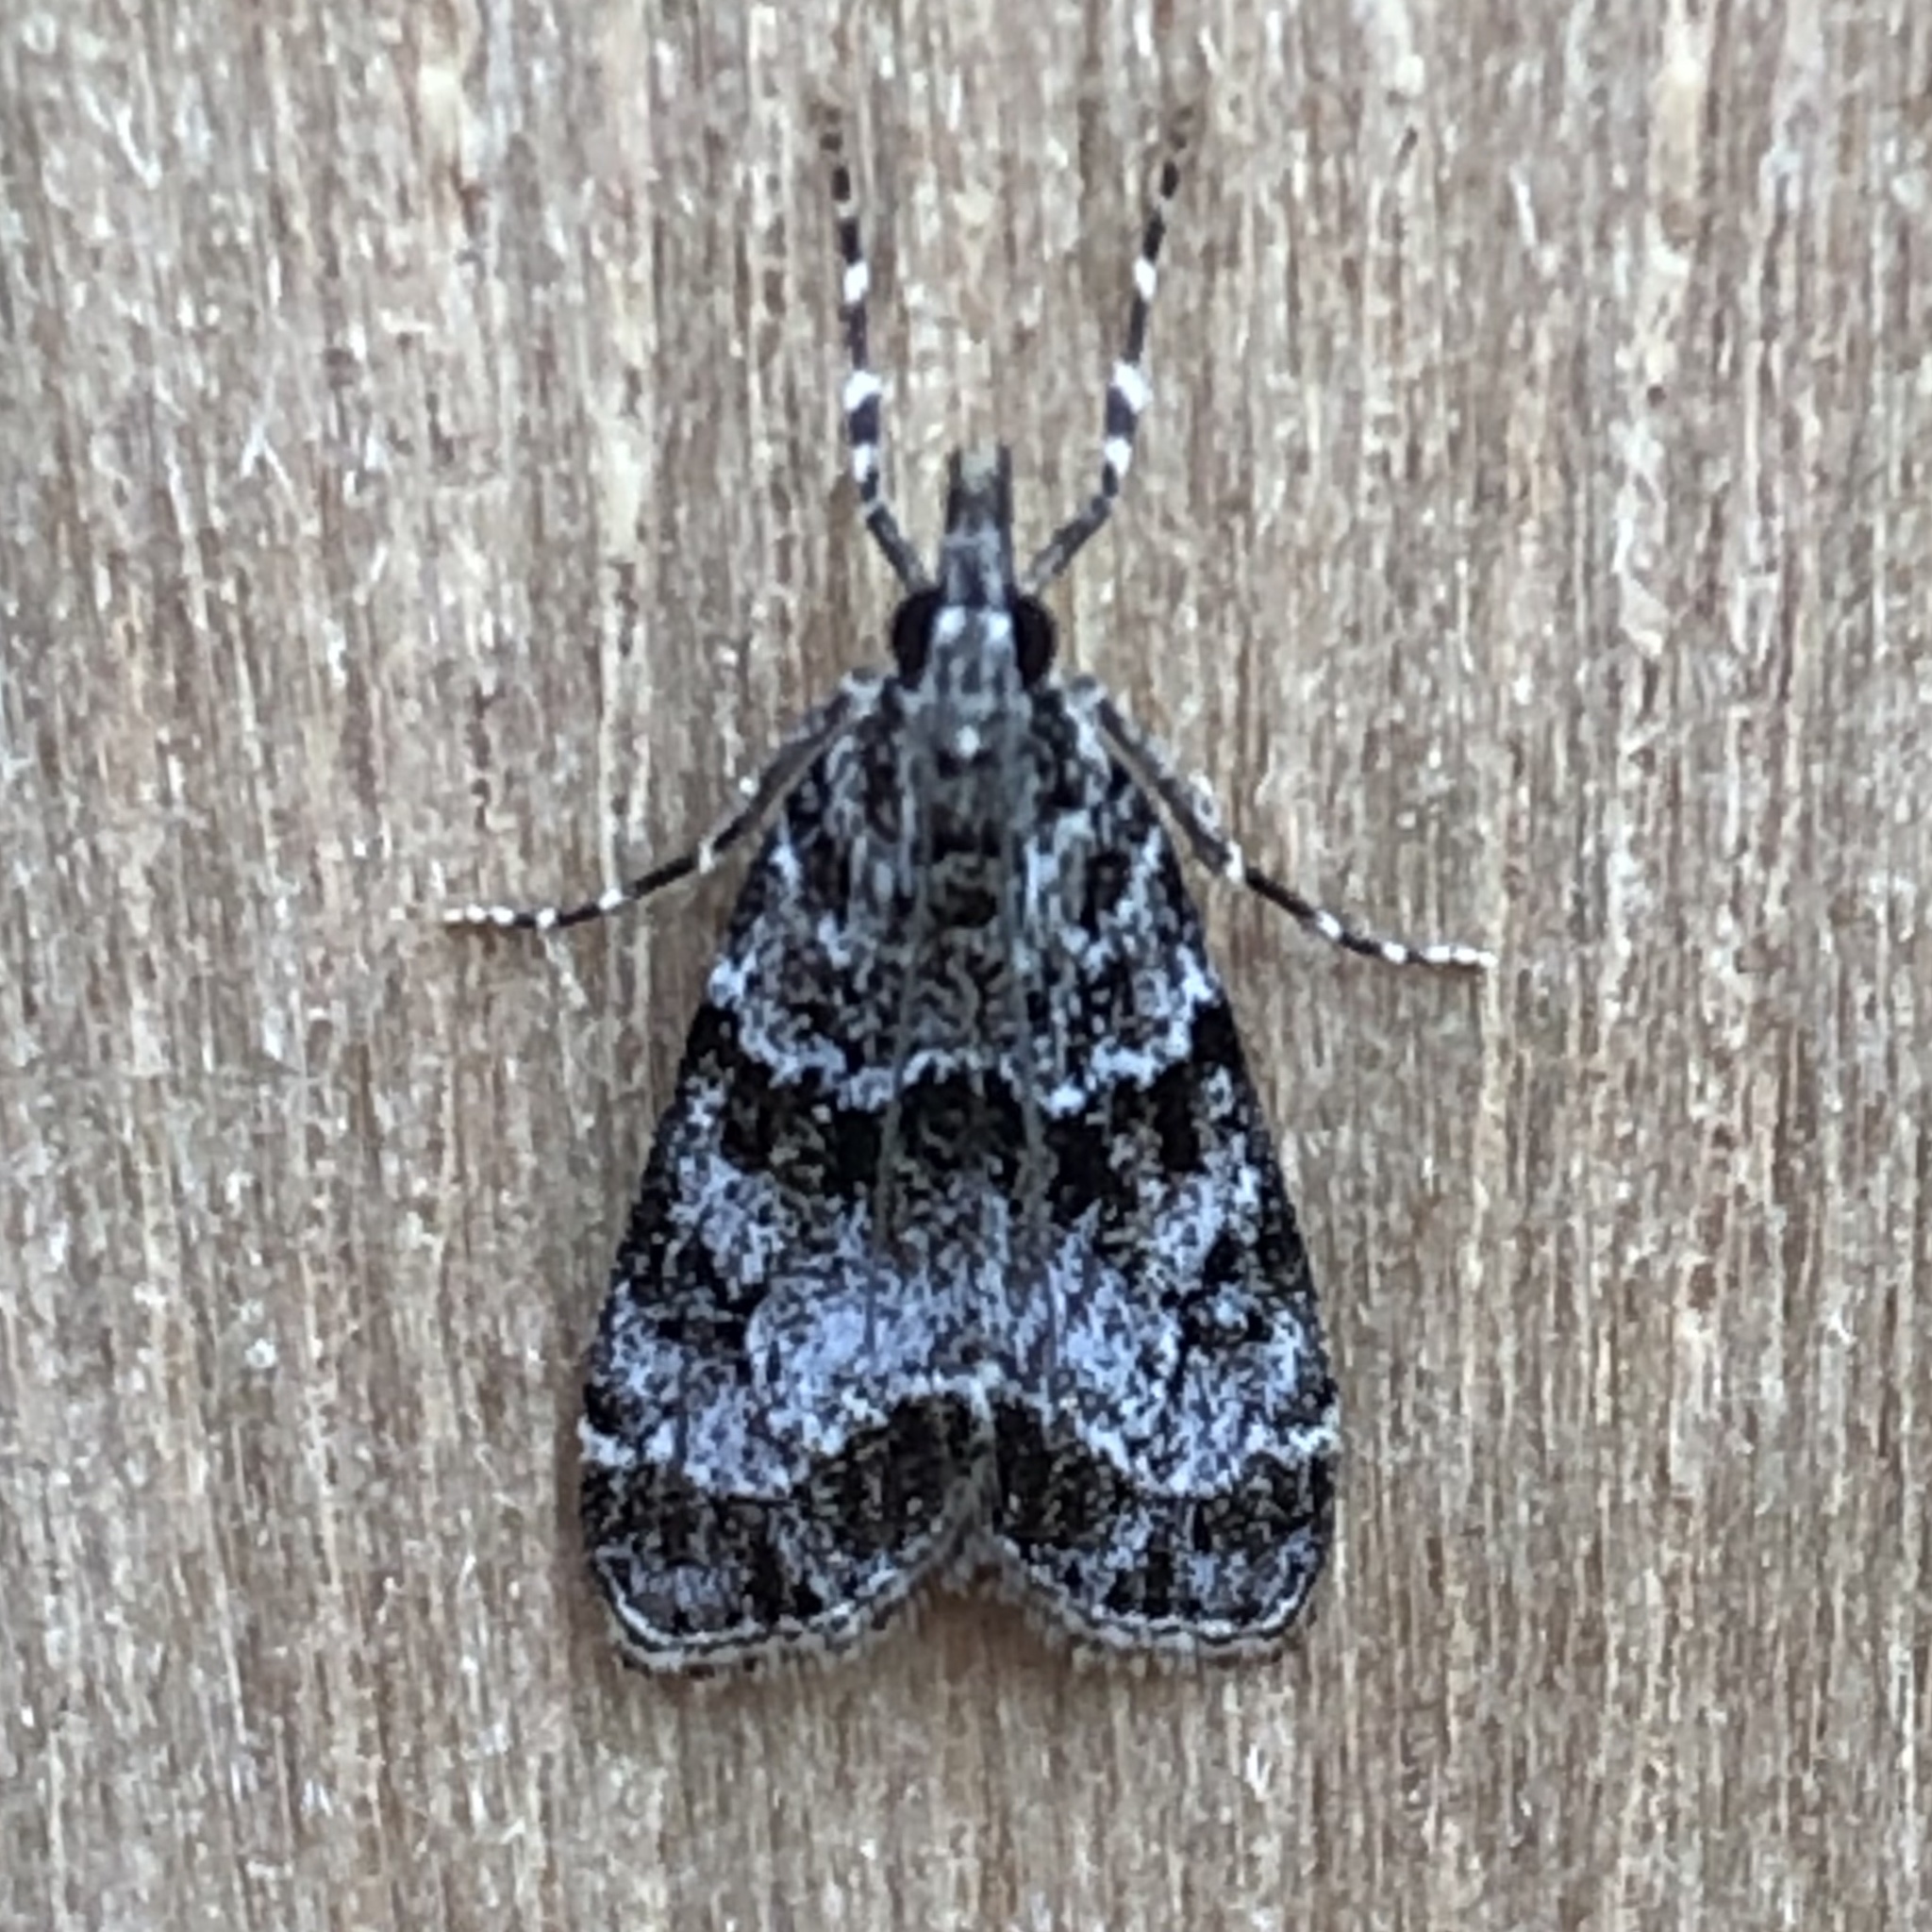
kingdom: Animalia
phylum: Arthropoda
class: Insecta
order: Lepidoptera
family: Crambidae
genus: Eudonia
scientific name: Eudonia mercurella
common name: Small grey
